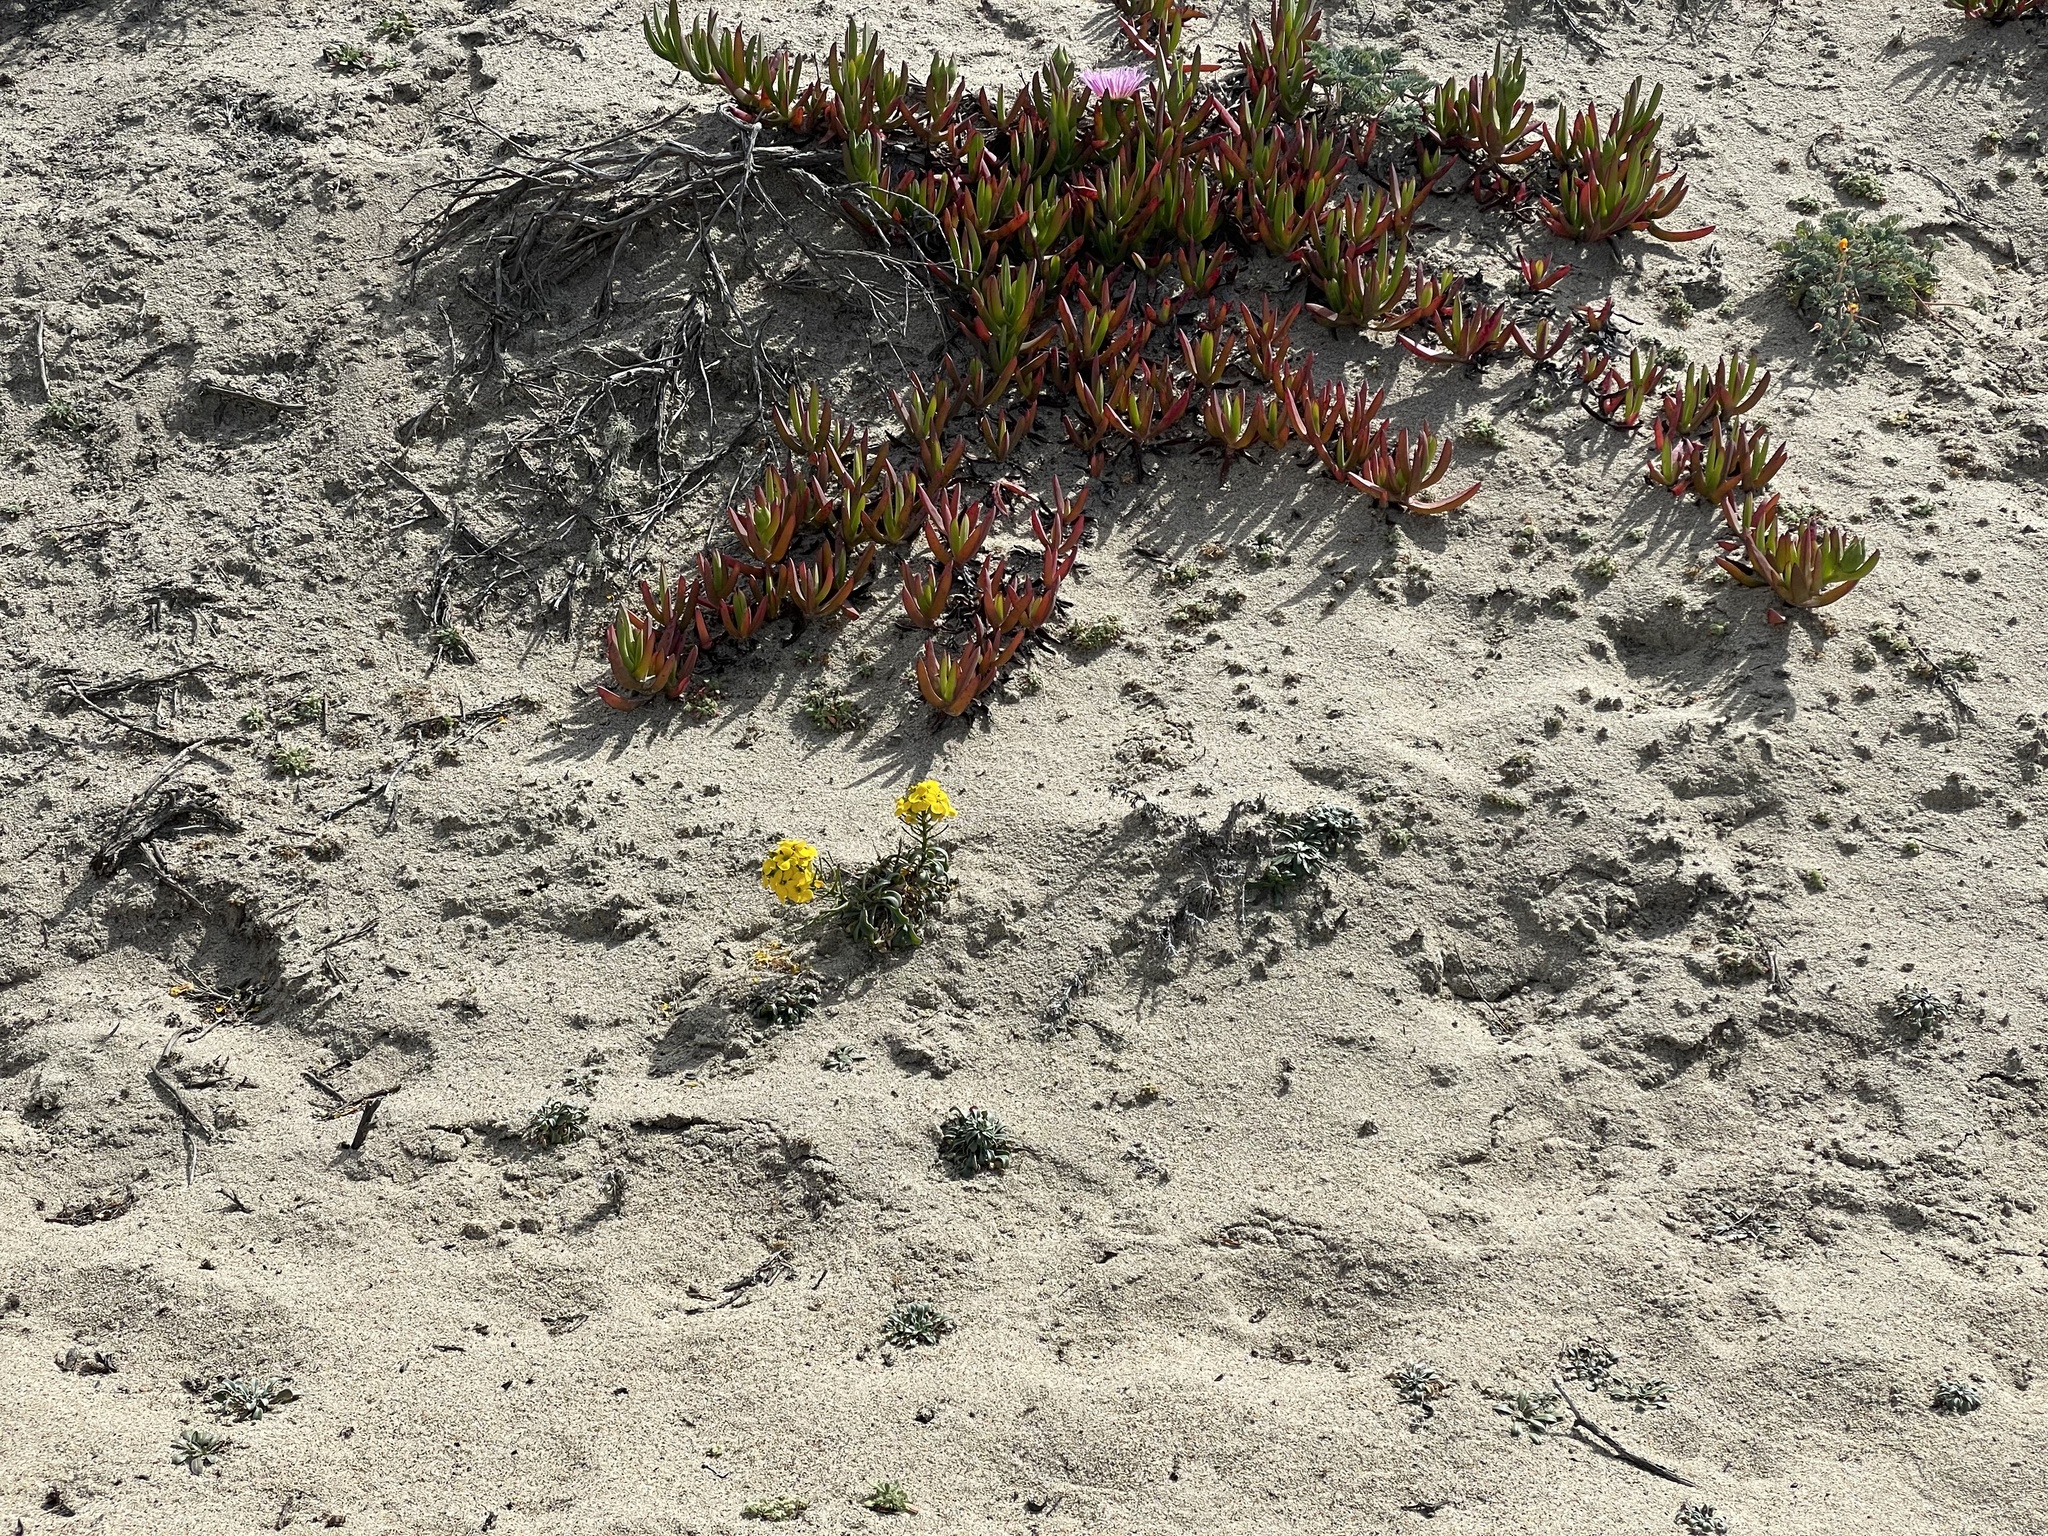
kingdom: Plantae
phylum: Tracheophyta
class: Magnoliopsida
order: Brassicales
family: Brassicaceae
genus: Erysimum
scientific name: Erysimum menziesii
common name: Menzies's wallflower
